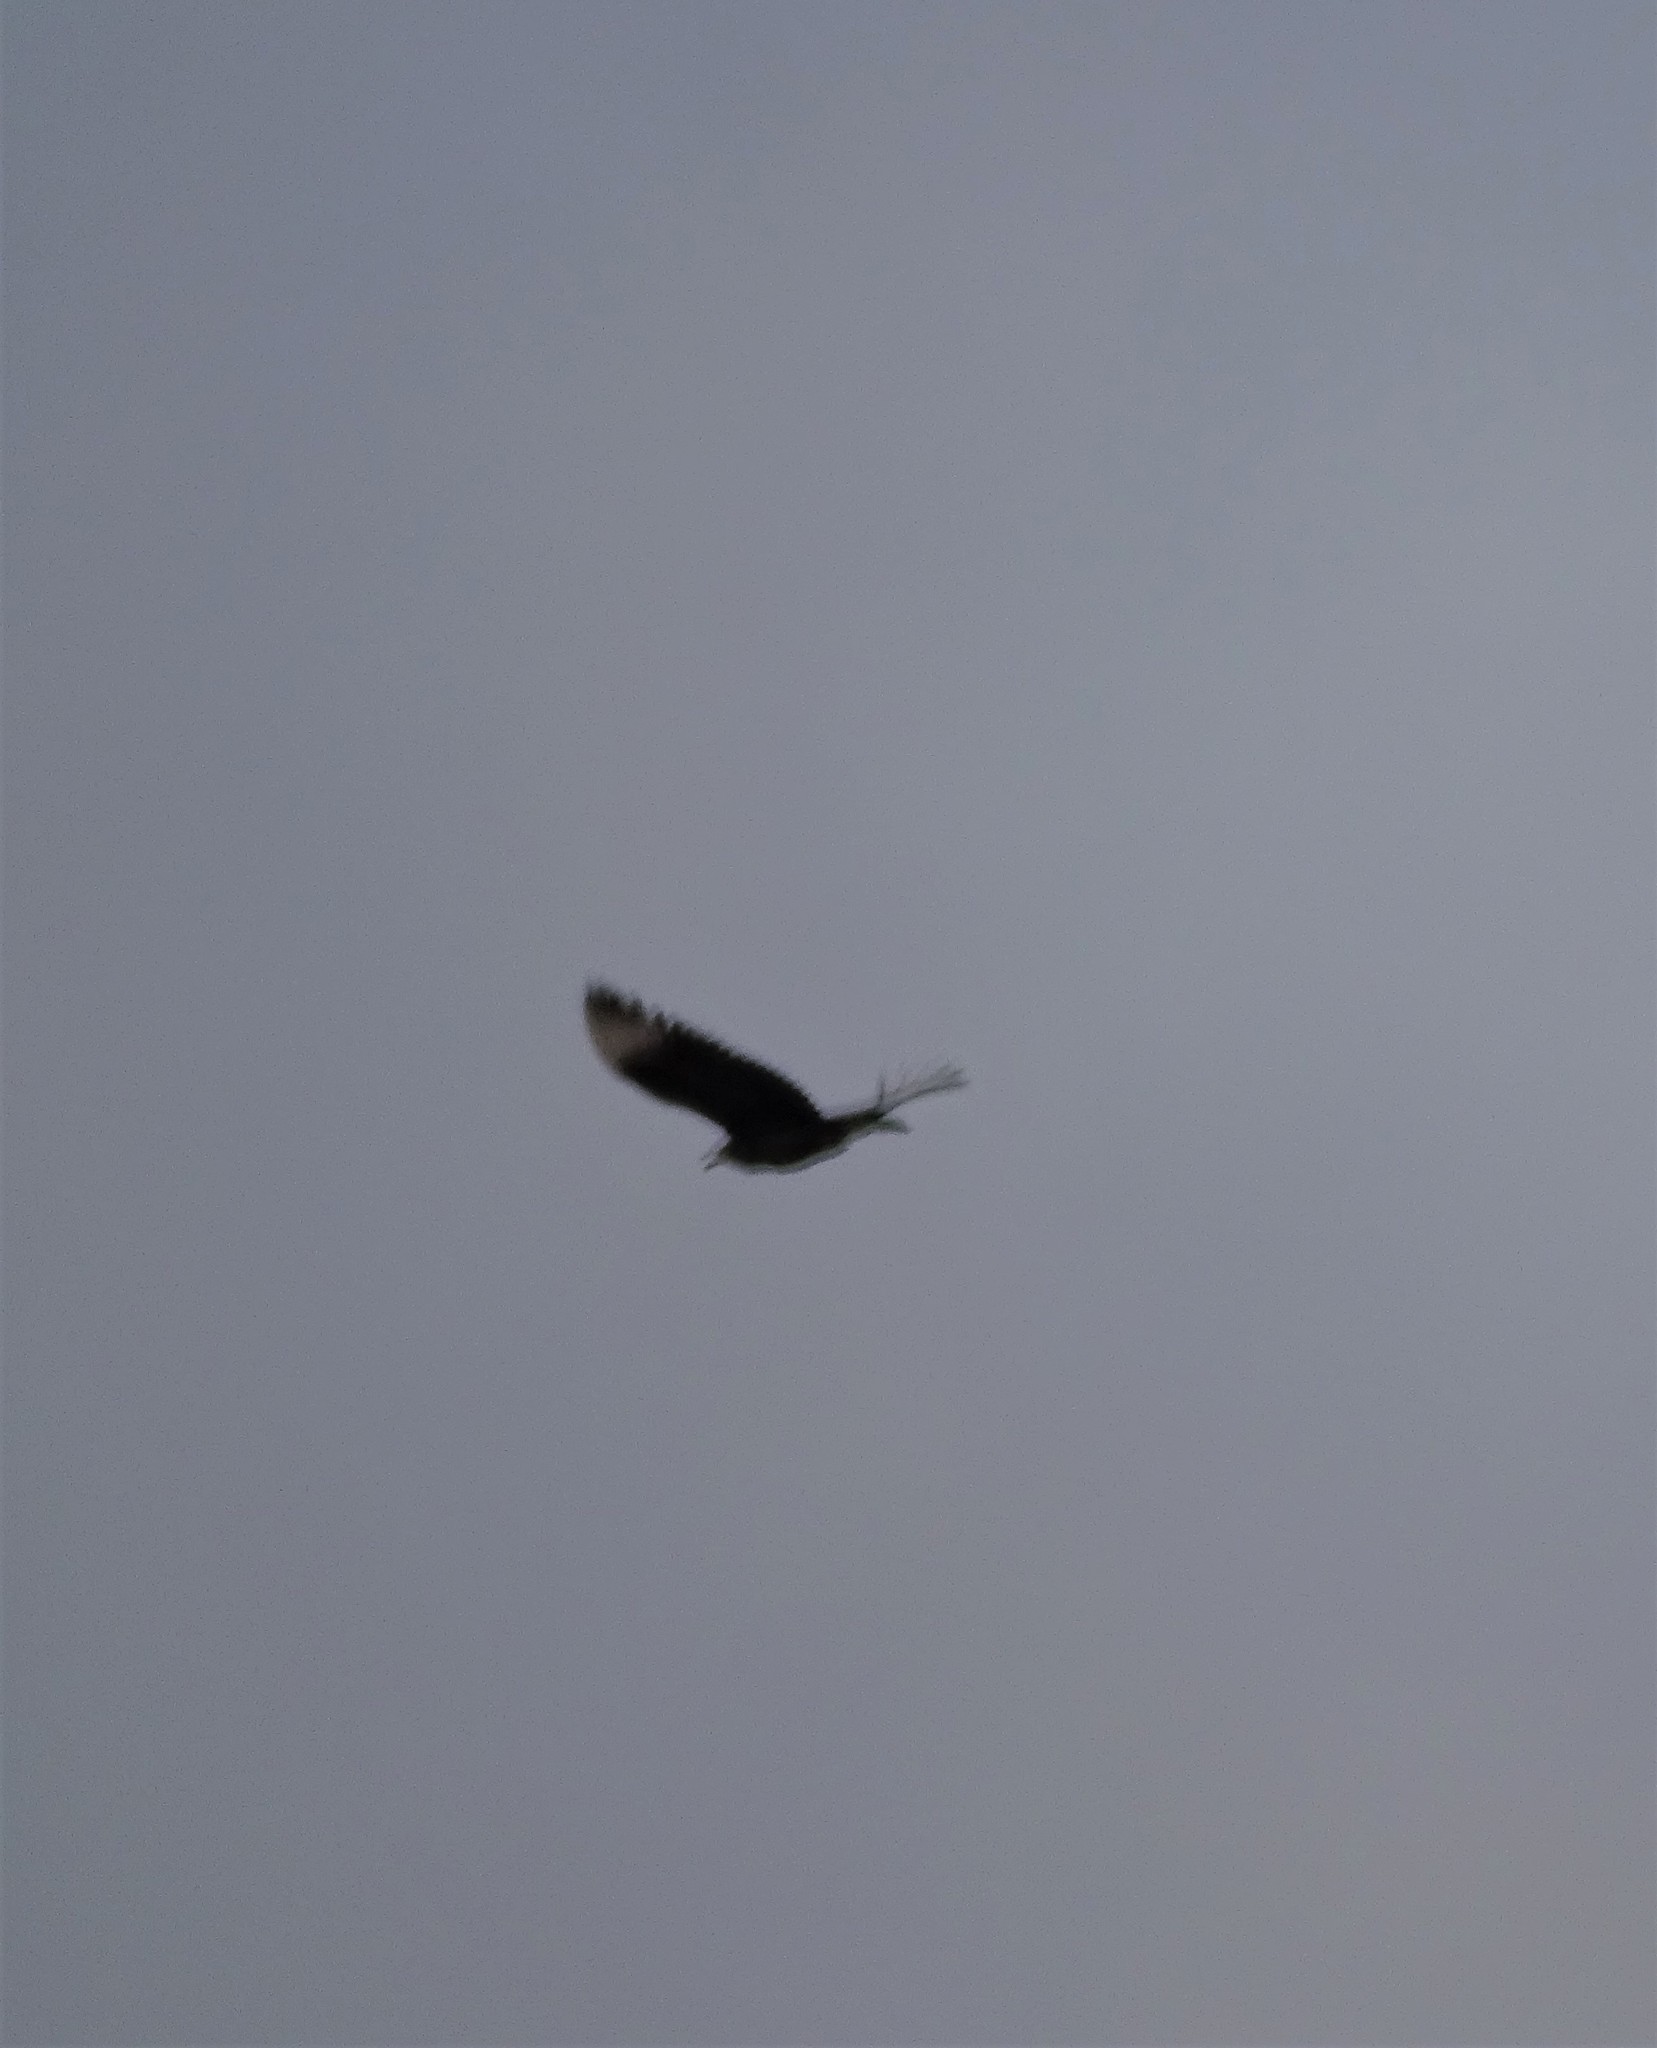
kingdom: Animalia
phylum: Chordata
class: Aves
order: Accipitriformes
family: Cathartidae
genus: Coragyps
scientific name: Coragyps atratus
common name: Black vulture
